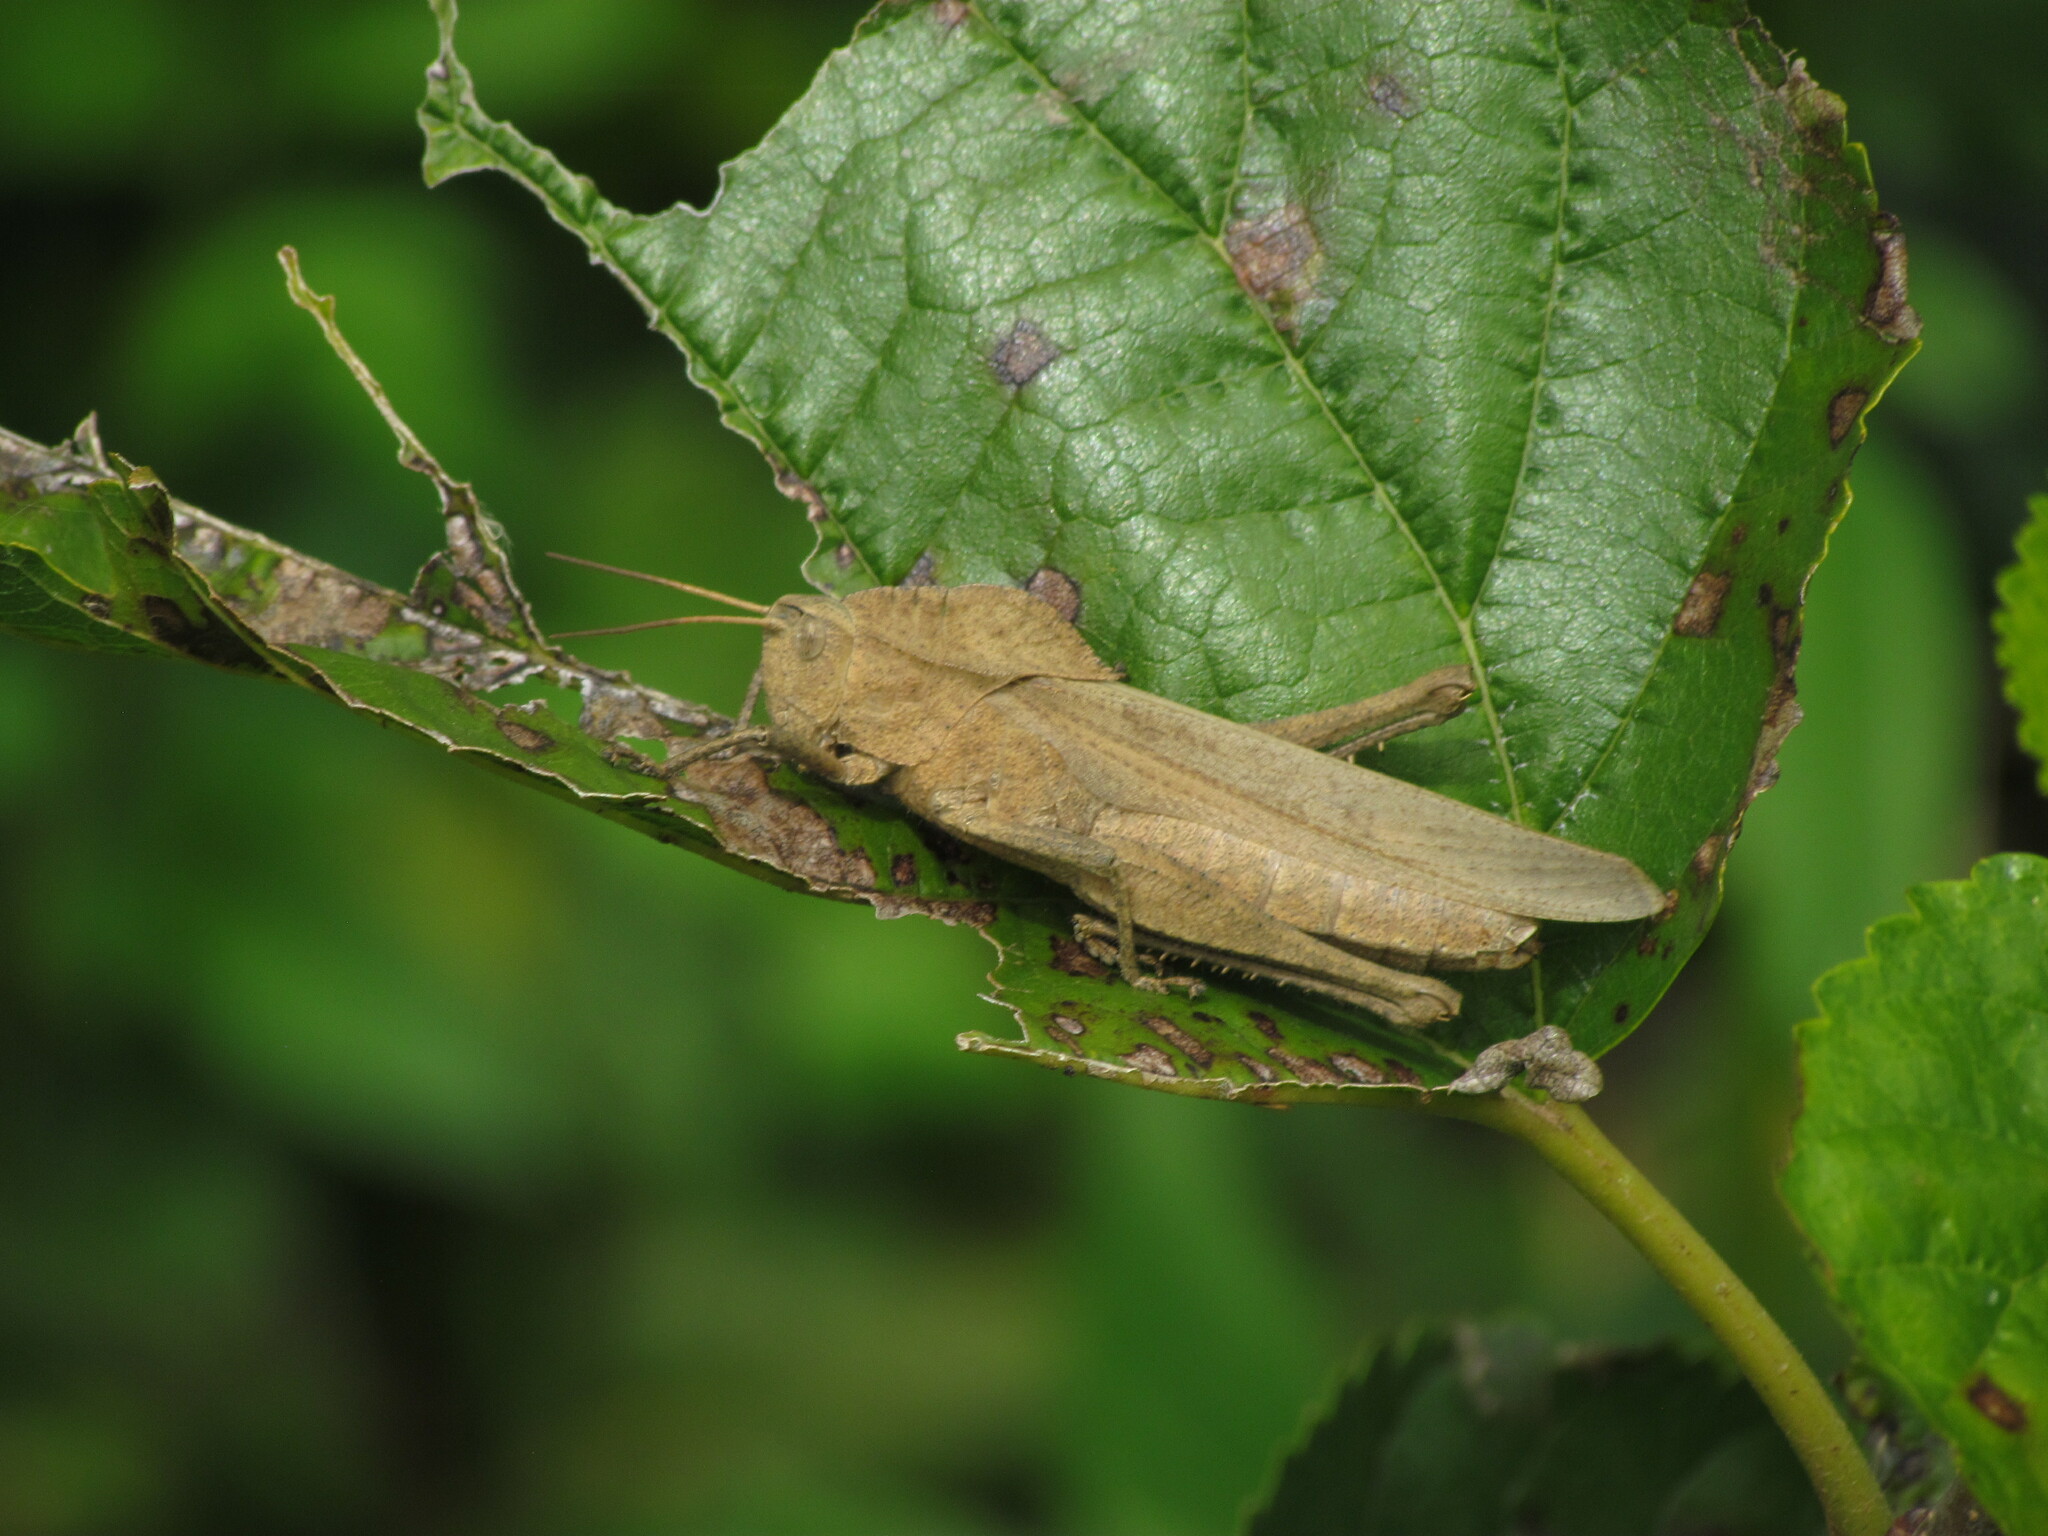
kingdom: Animalia
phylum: Arthropoda
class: Insecta
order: Orthoptera
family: Romaleidae
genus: Xyleus
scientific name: Xyleus discoideus
